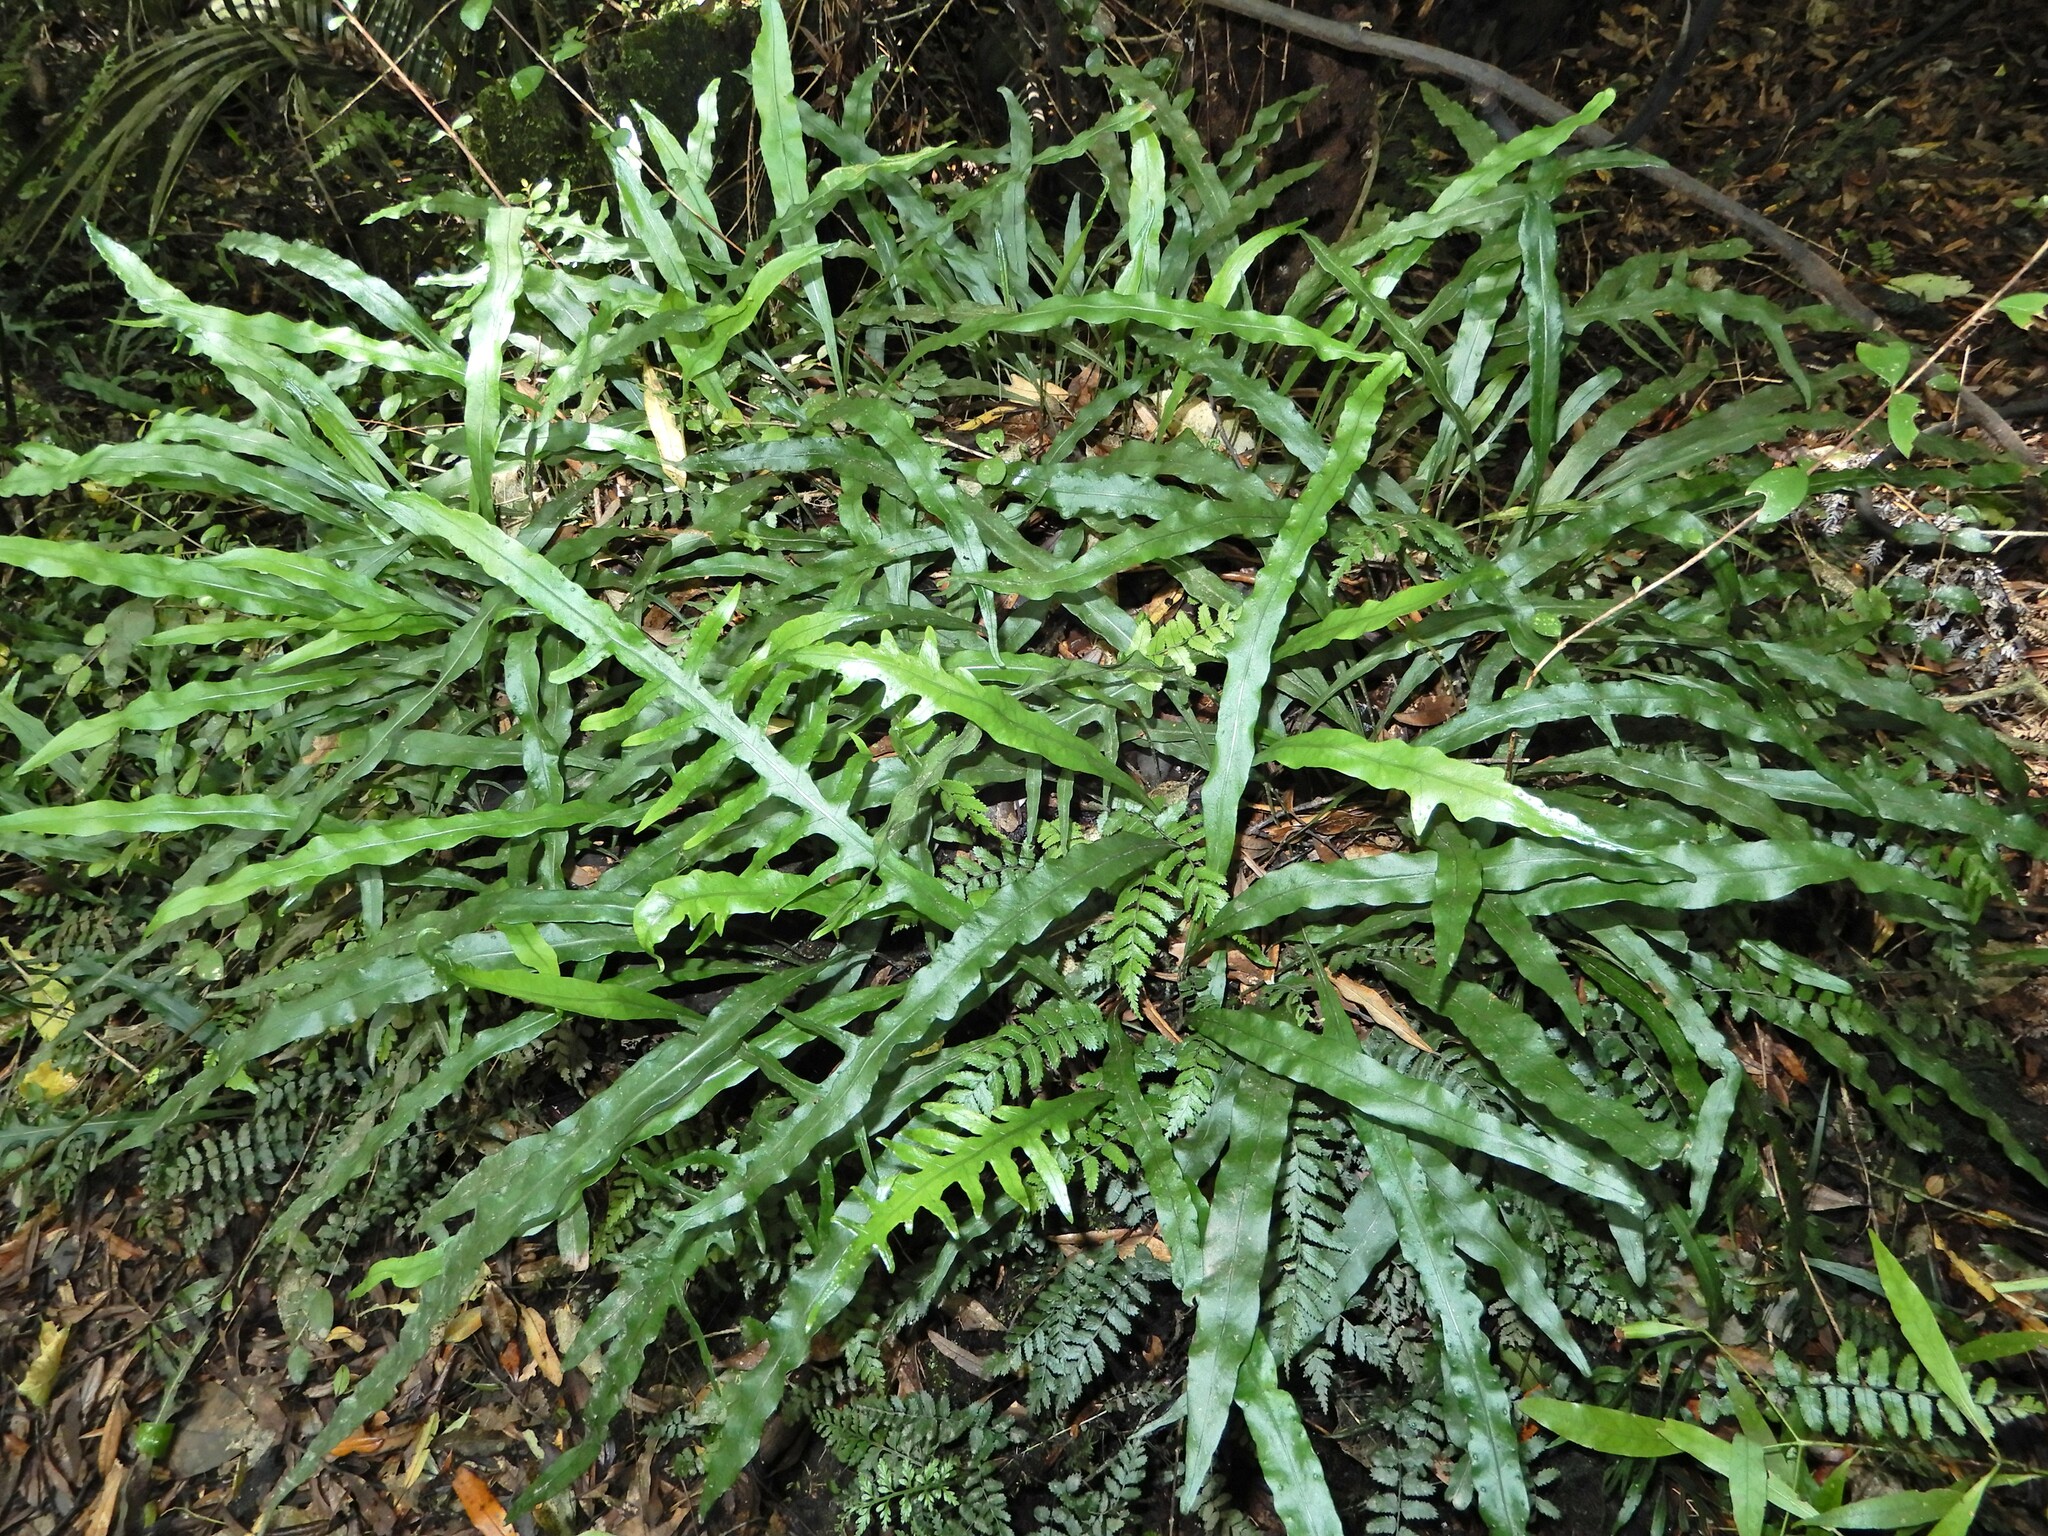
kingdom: Plantae
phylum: Tracheophyta
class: Polypodiopsida
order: Polypodiales
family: Polypodiaceae
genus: Lecanopteris
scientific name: Lecanopteris scandens
